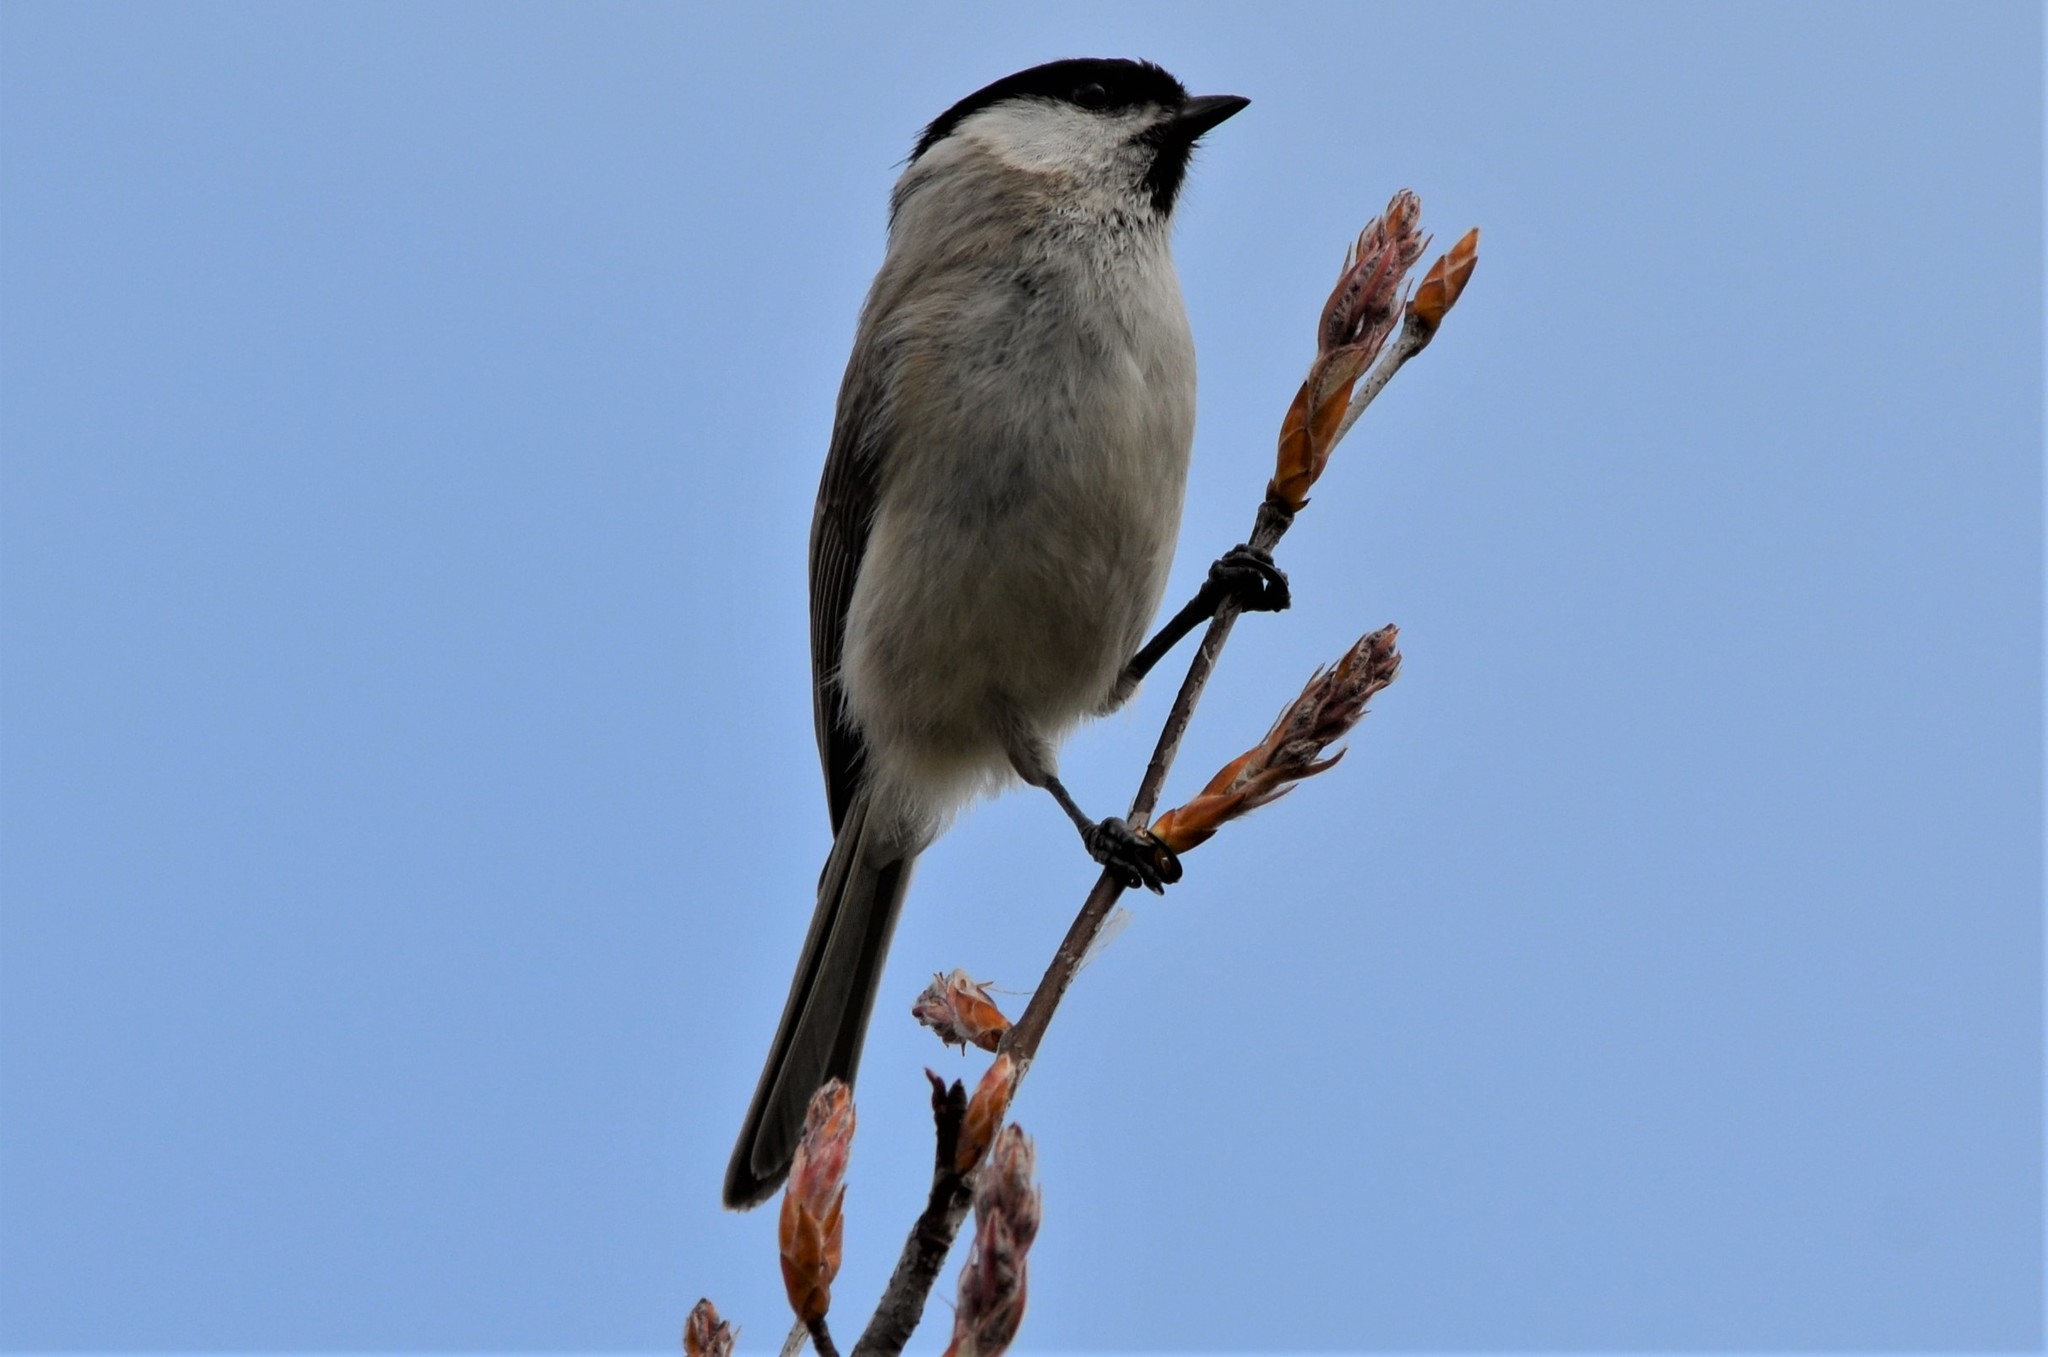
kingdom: Animalia
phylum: Chordata
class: Aves
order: Passeriformes
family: Paridae
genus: Poecile
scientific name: Poecile palustris
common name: Marsh tit
